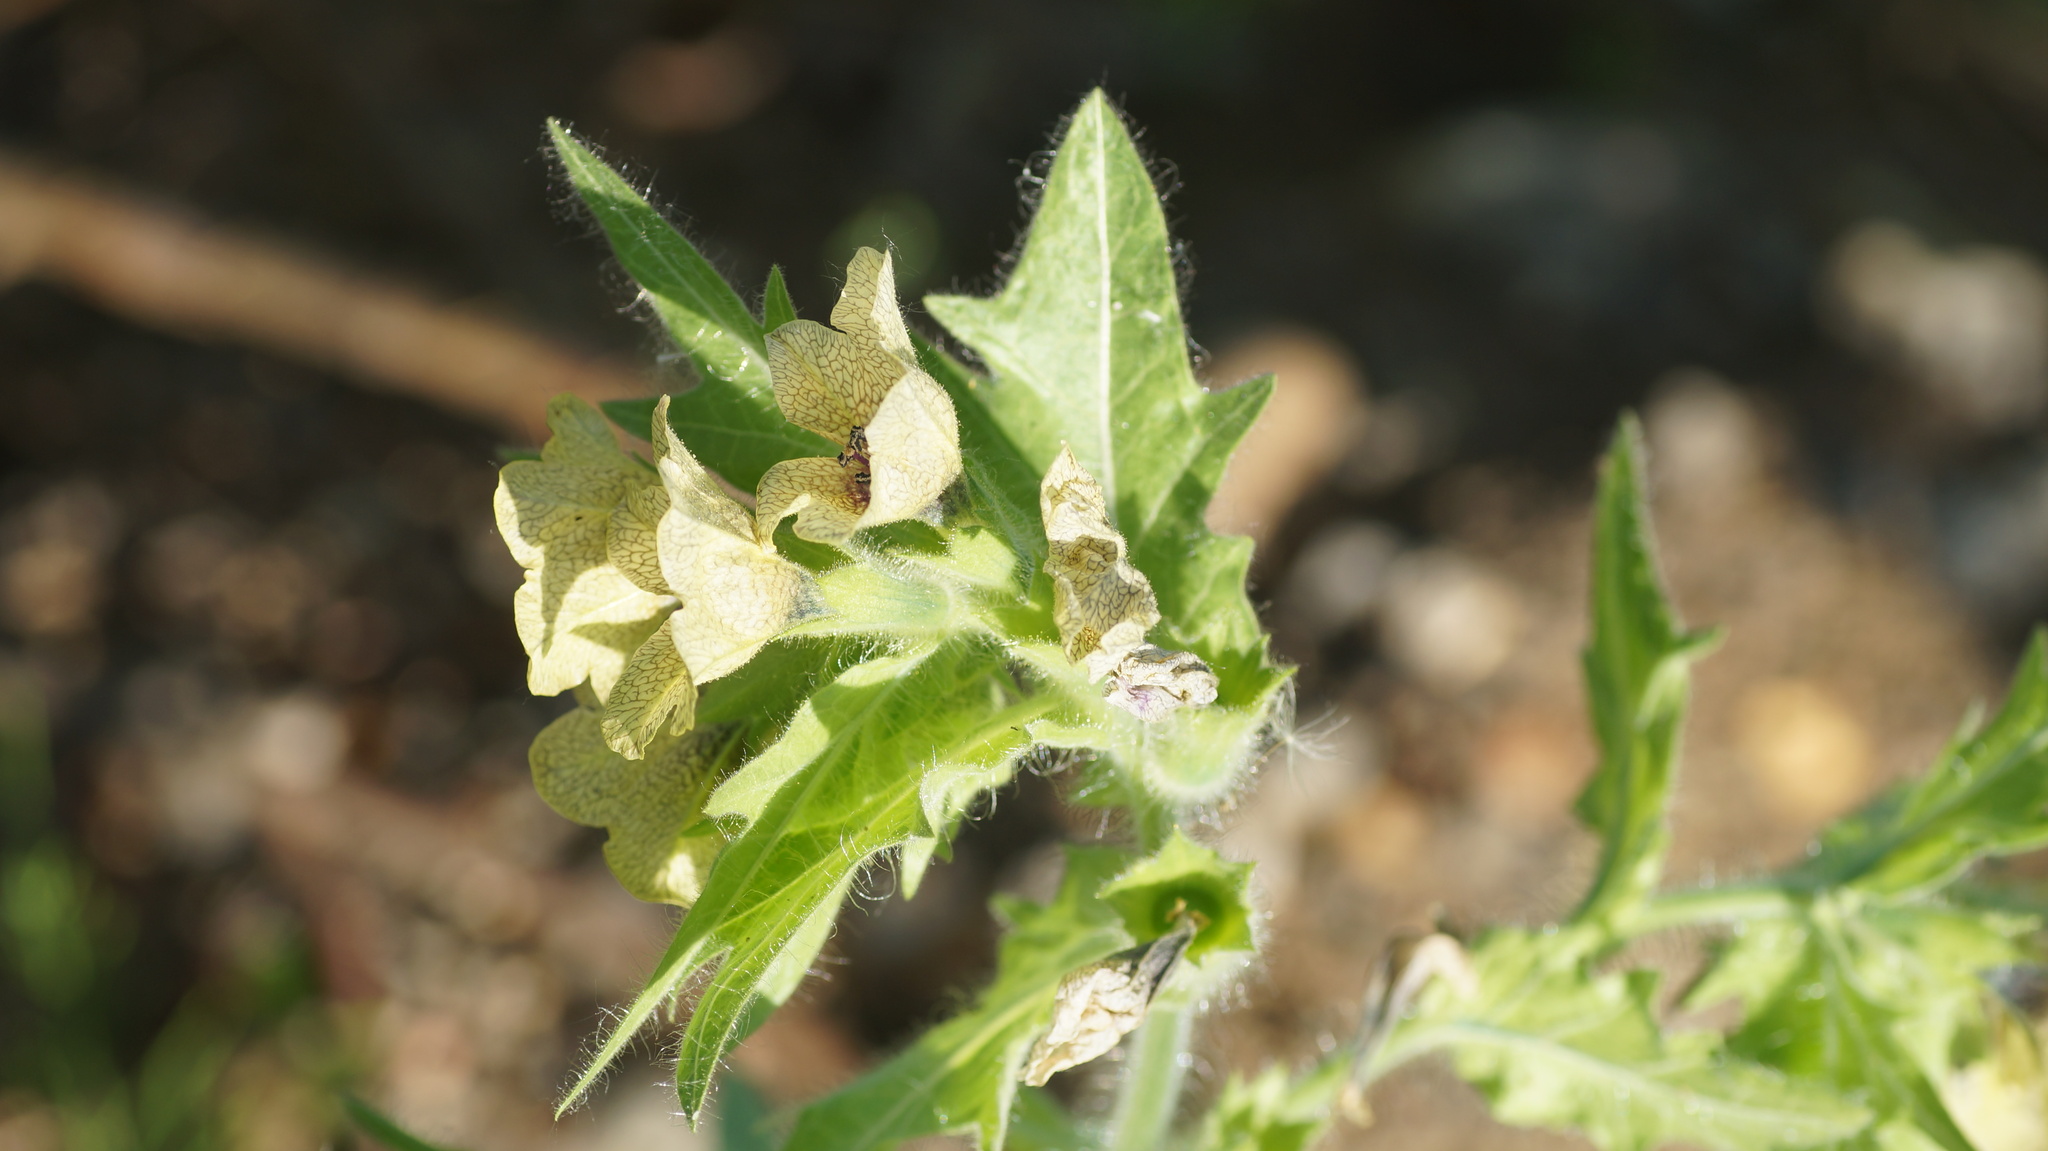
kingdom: Plantae
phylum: Tracheophyta
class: Magnoliopsida
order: Solanales
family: Solanaceae
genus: Hyoscyamus
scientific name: Hyoscyamus niger
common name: Henbane
